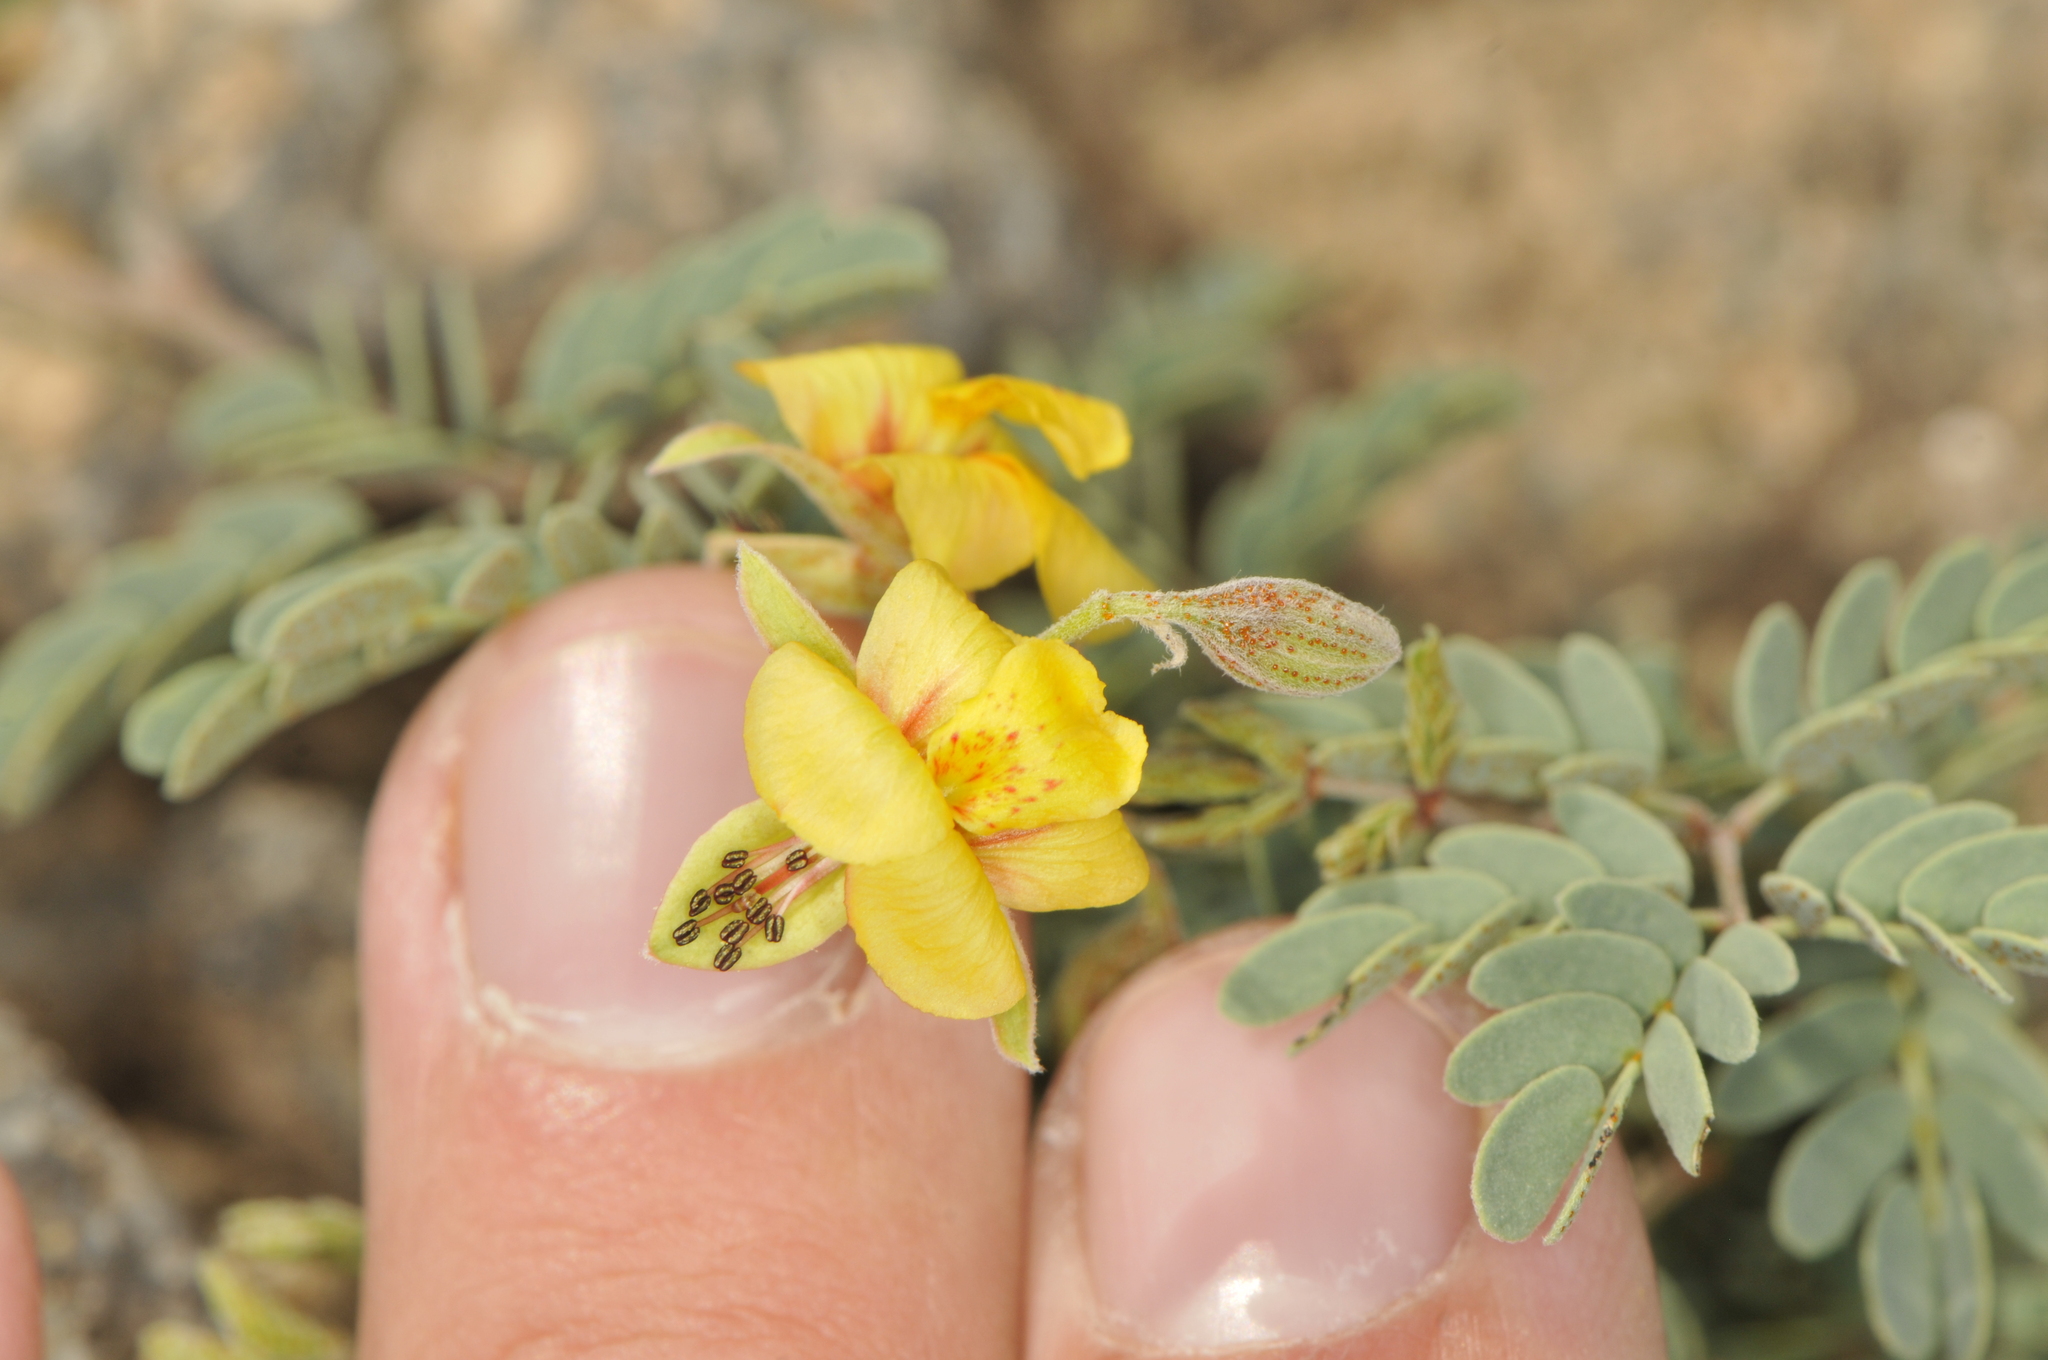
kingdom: Plantae
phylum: Tracheophyta
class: Magnoliopsida
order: Fabales
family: Fabaceae
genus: Pomaria
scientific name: Pomaria jamesii
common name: James' caesalpinia
